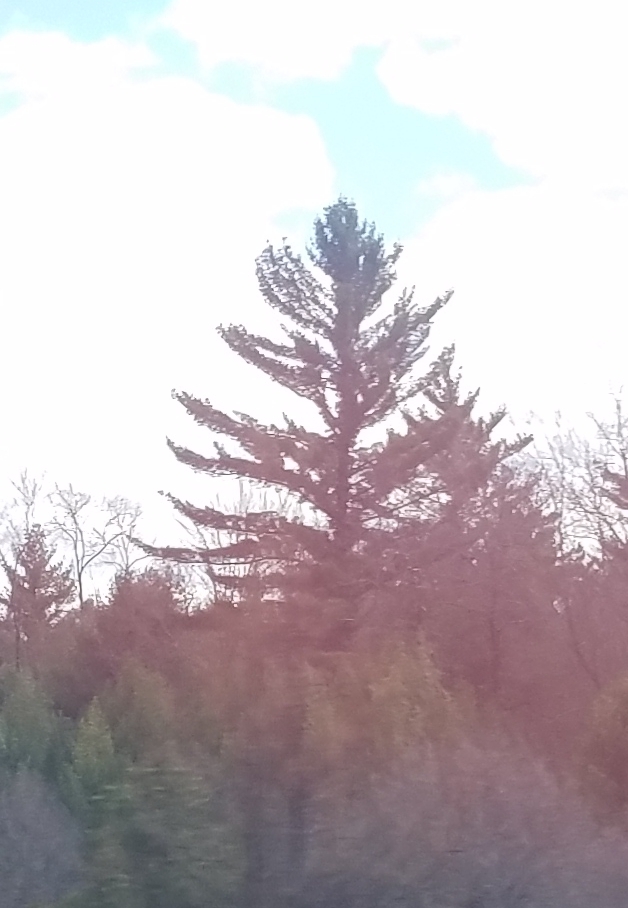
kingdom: Plantae
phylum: Tracheophyta
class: Pinopsida
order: Pinales
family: Pinaceae
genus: Pinus
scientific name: Pinus strobus
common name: Weymouth pine
